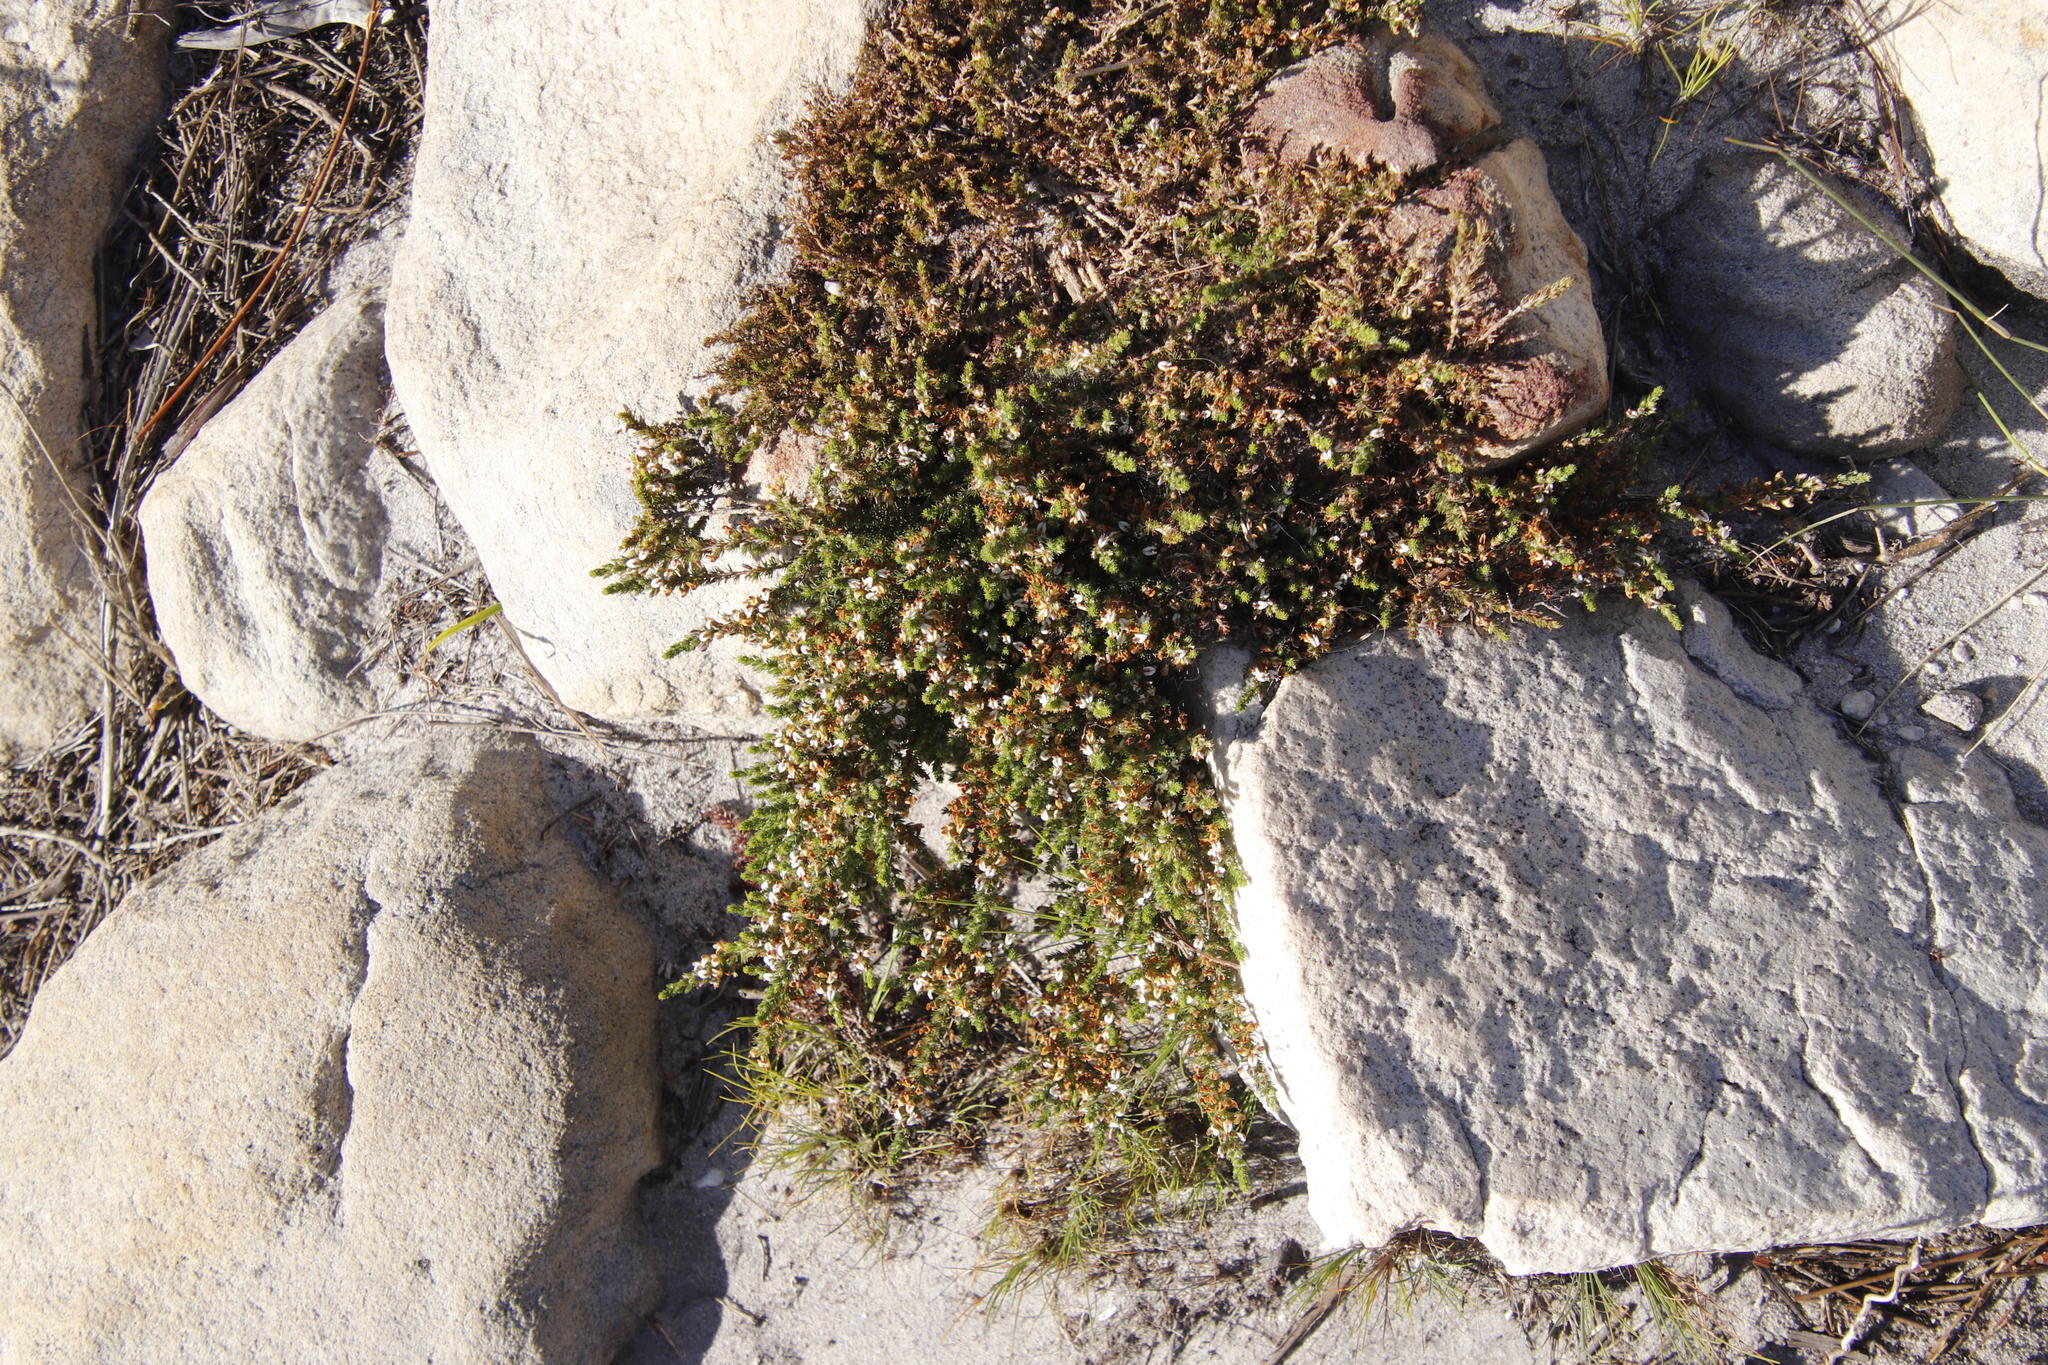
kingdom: Plantae
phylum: Tracheophyta
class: Magnoliopsida
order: Fabales
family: Fabaceae
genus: Aspalathus
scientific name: Aspalathus hispida
